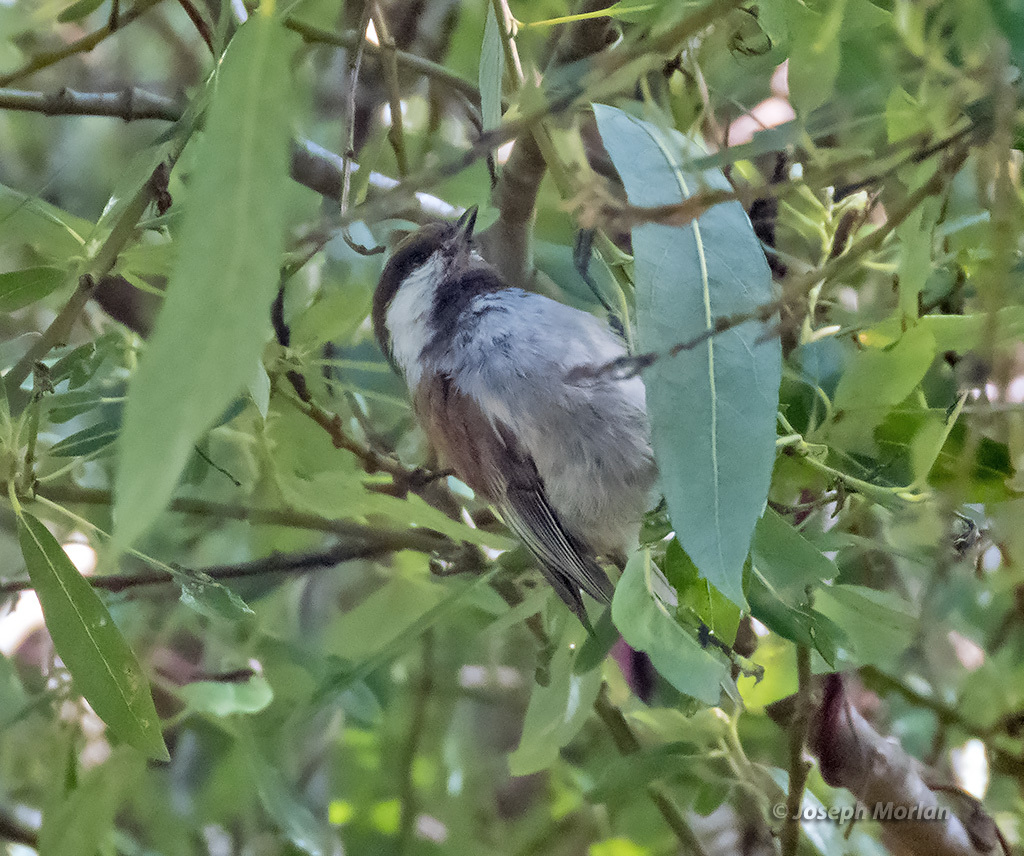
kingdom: Animalia
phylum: Chordata
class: Aves
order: Passeriformes
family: Paridae
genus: Poecile
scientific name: Poecile rufescens
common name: Chestnut-backed chickadee
